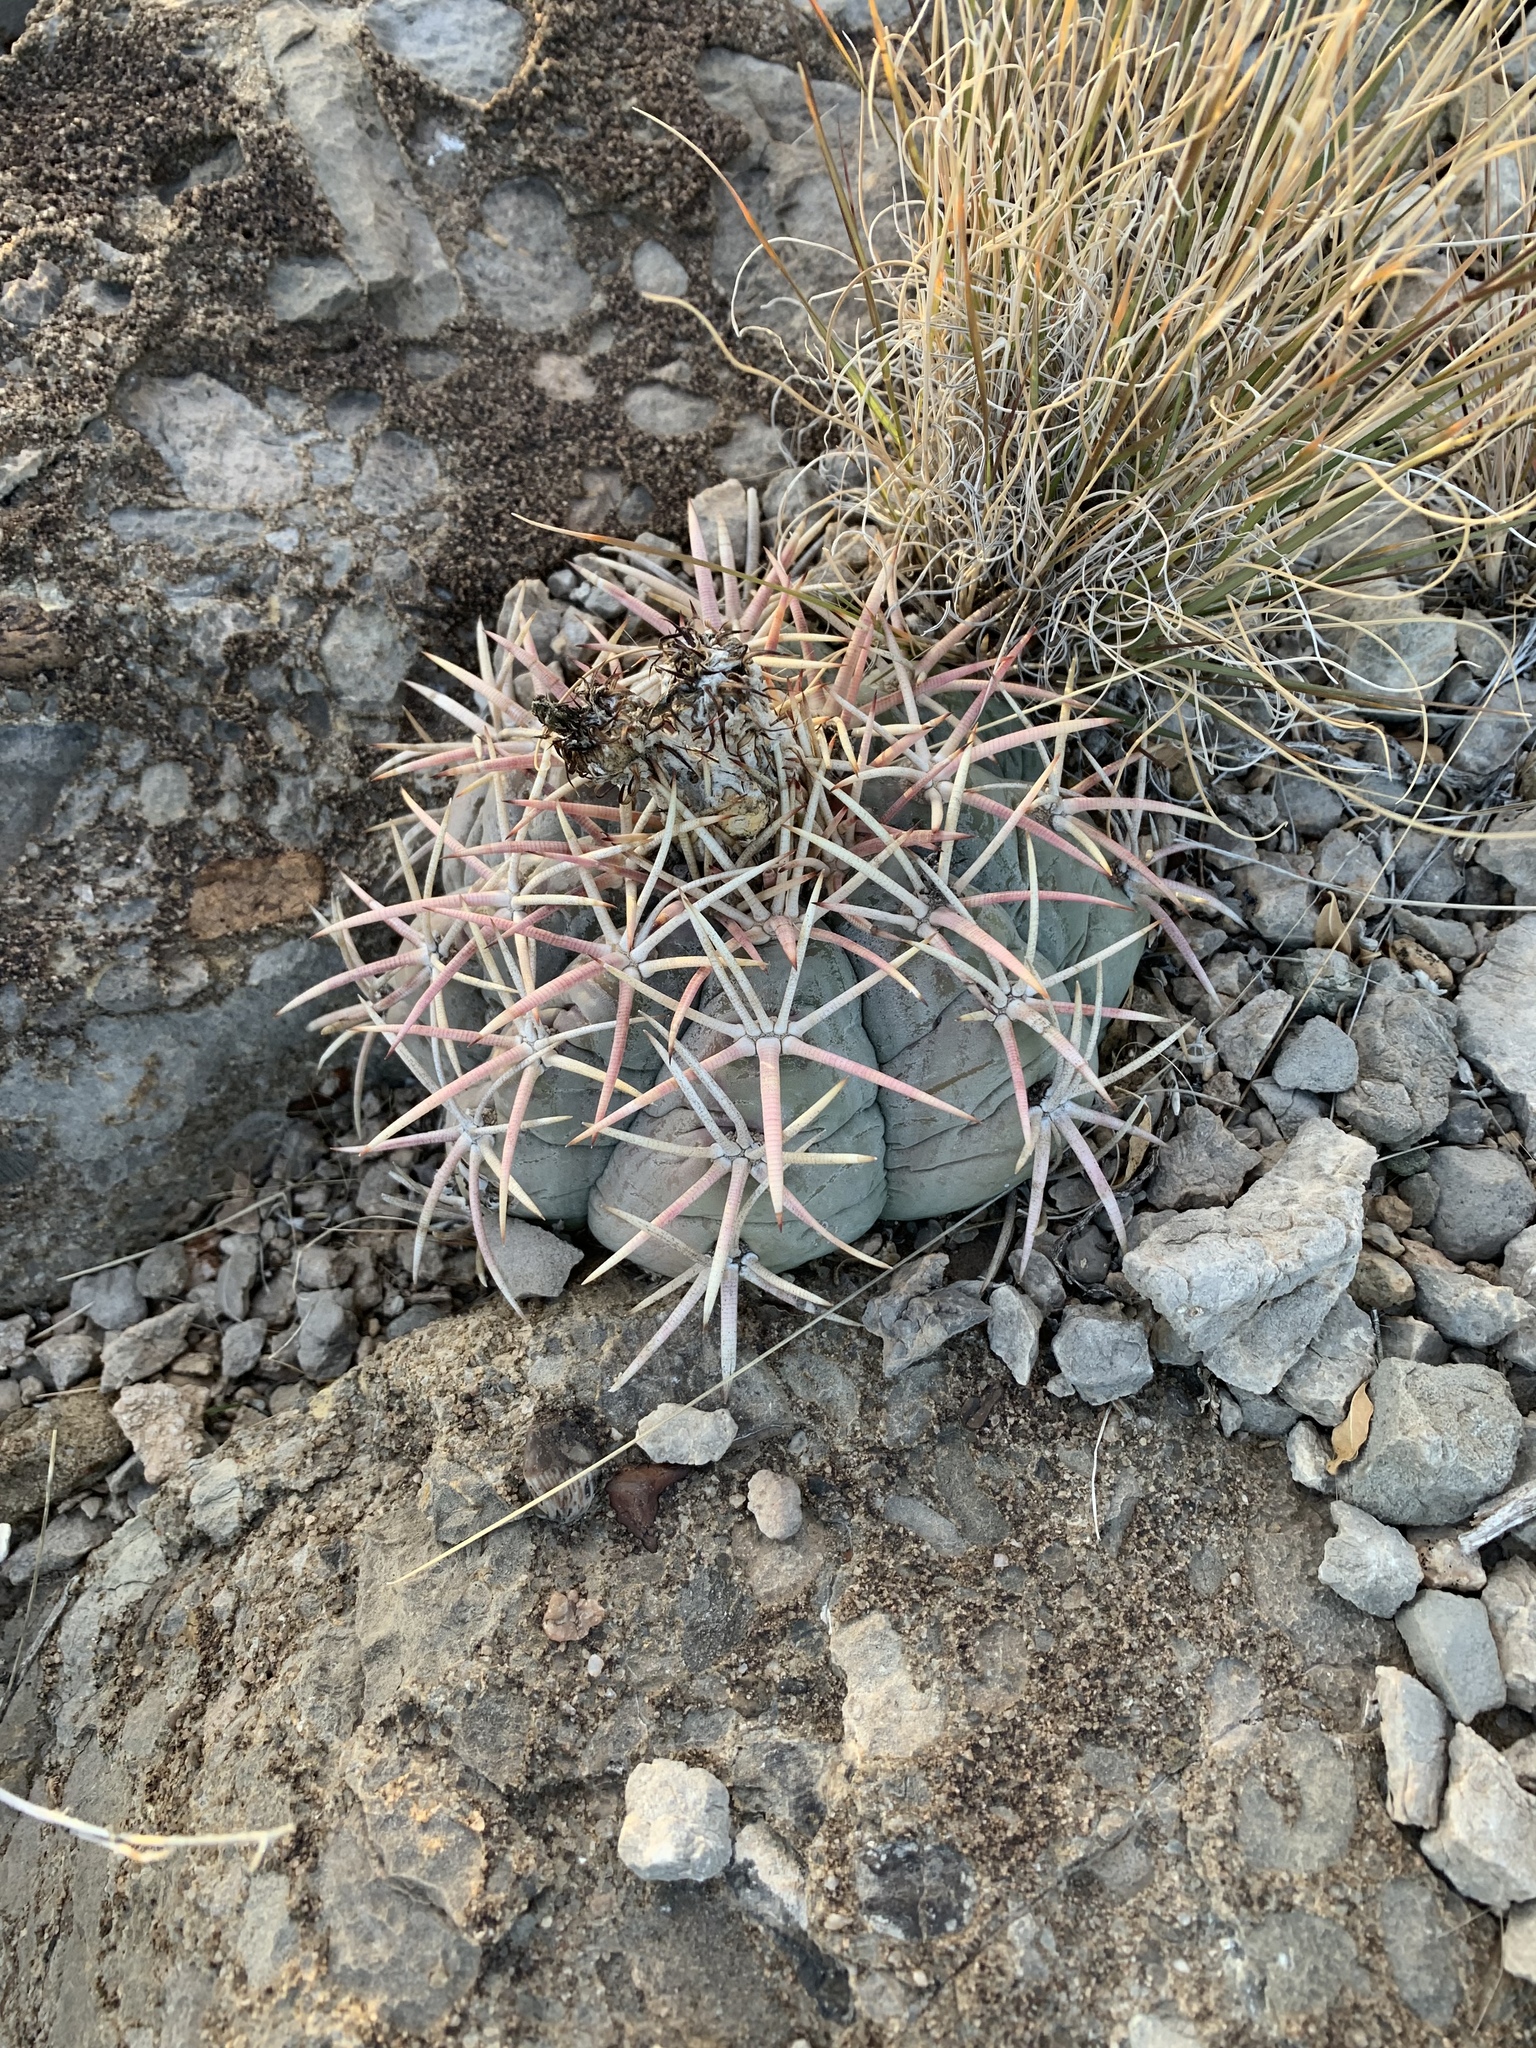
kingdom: Plantae
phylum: Tracheophyta
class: Magnoliopsida
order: Caryophyllales
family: Cactaceae
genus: Echinocactus
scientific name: Echinocactus horizonthalonius
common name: Devilshead
